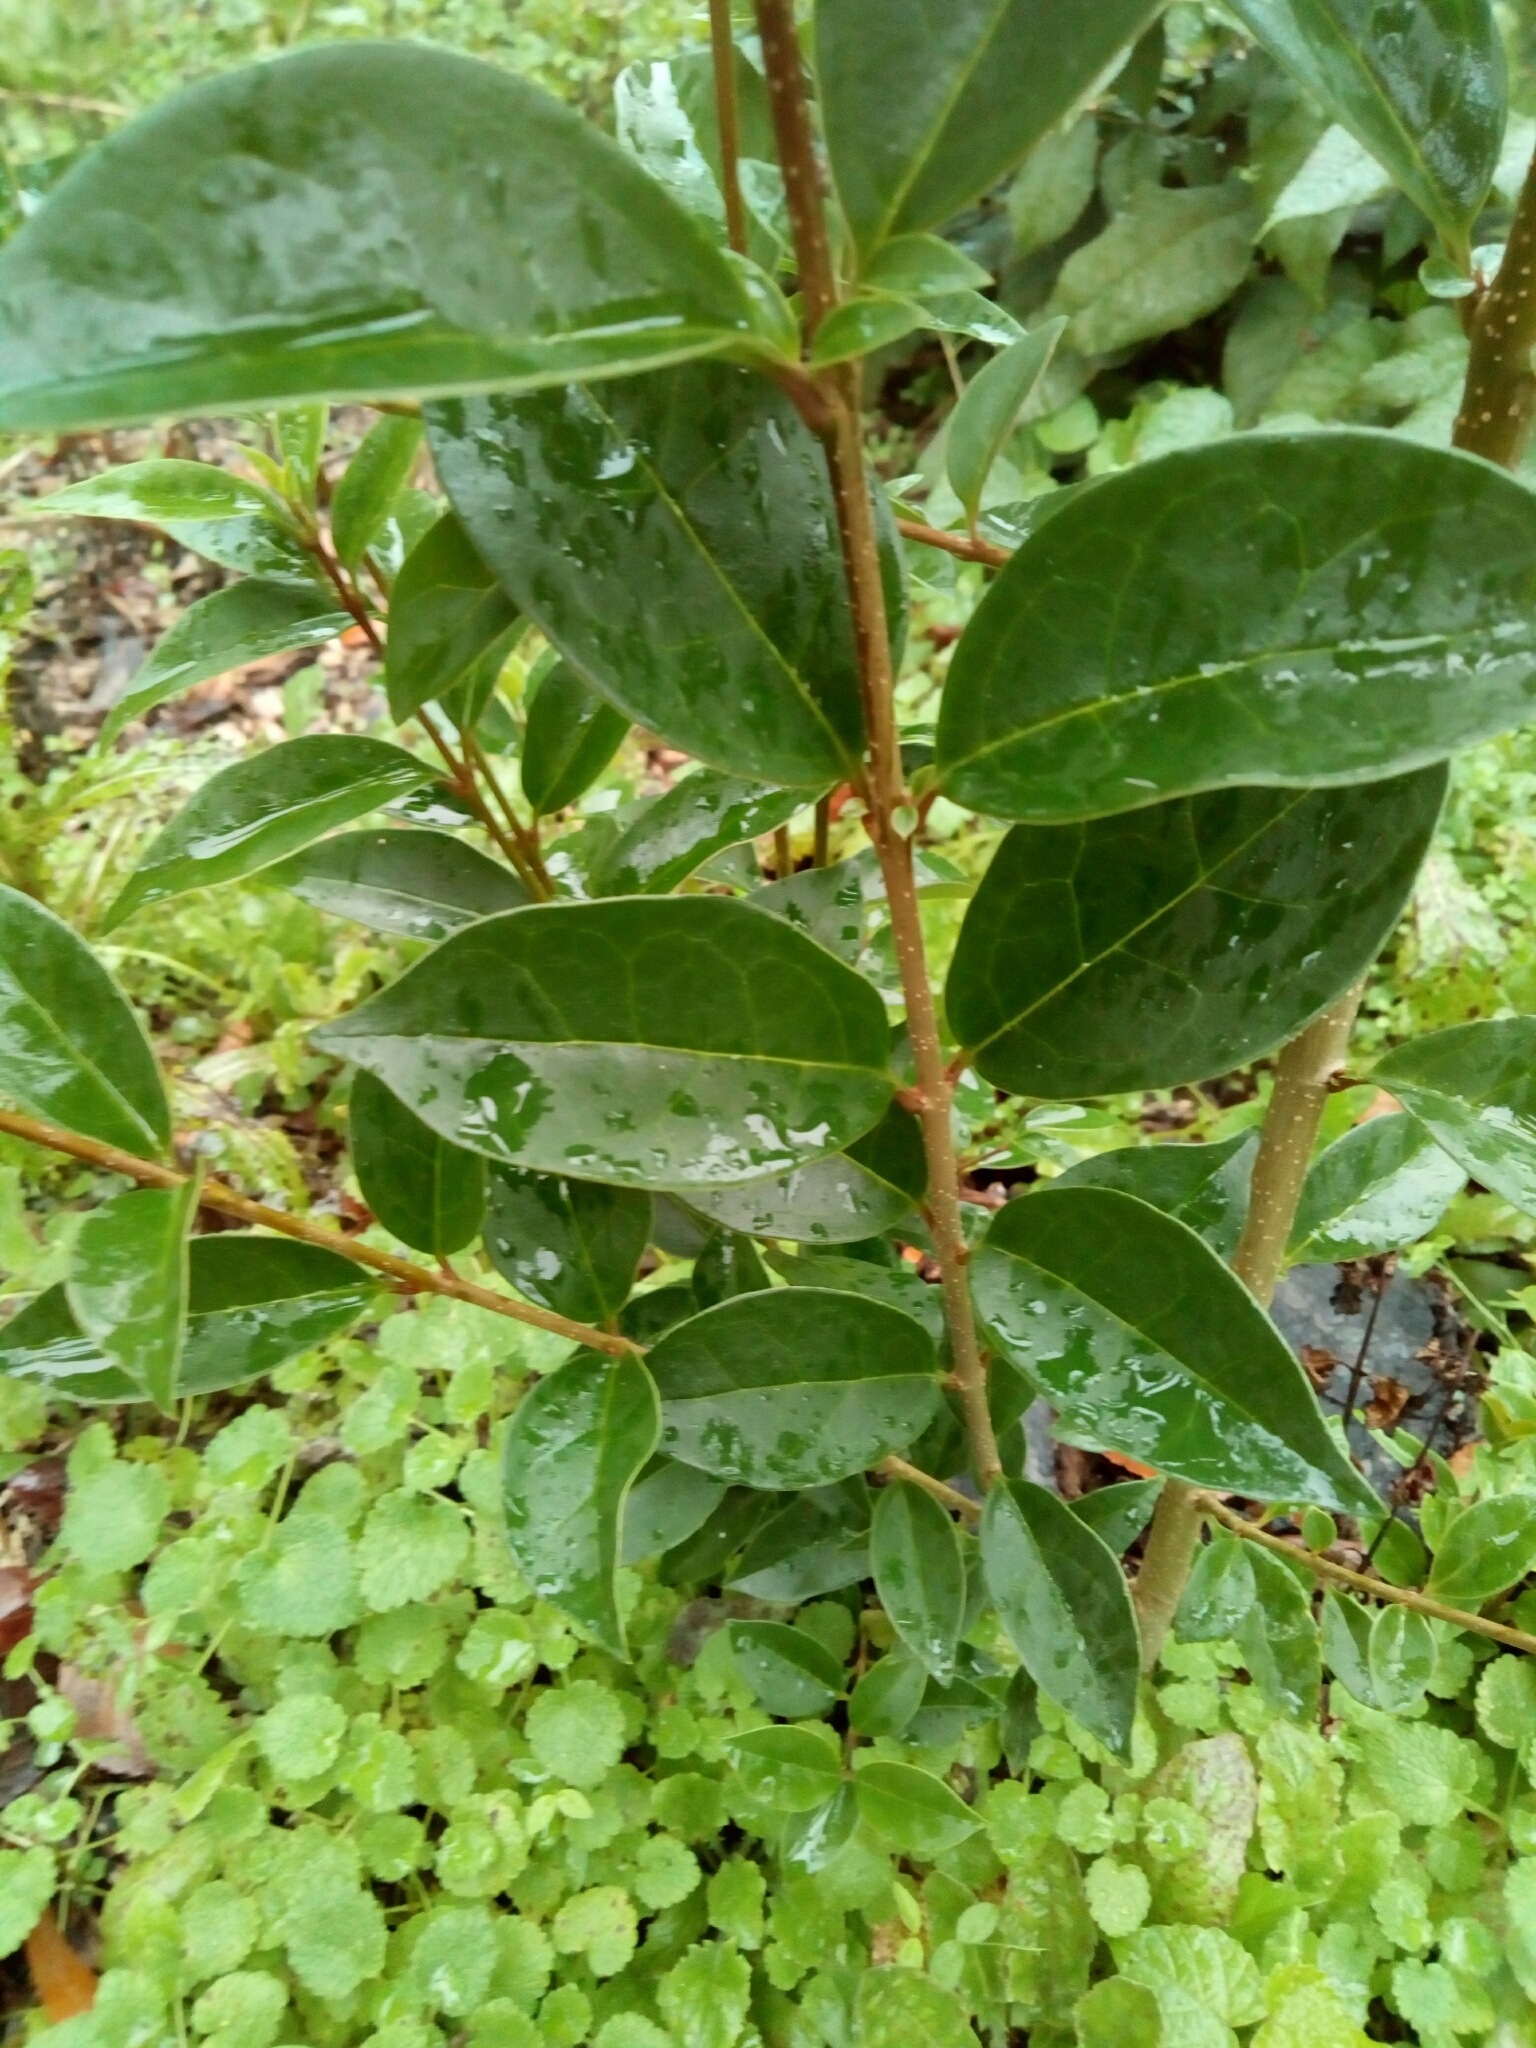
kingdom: Plantae
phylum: Tracheophyta
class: Magnoliopsida
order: Lamiales
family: Oleaceae
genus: Ligustrum
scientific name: Ligustrum lucidum
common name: Glossy privet
